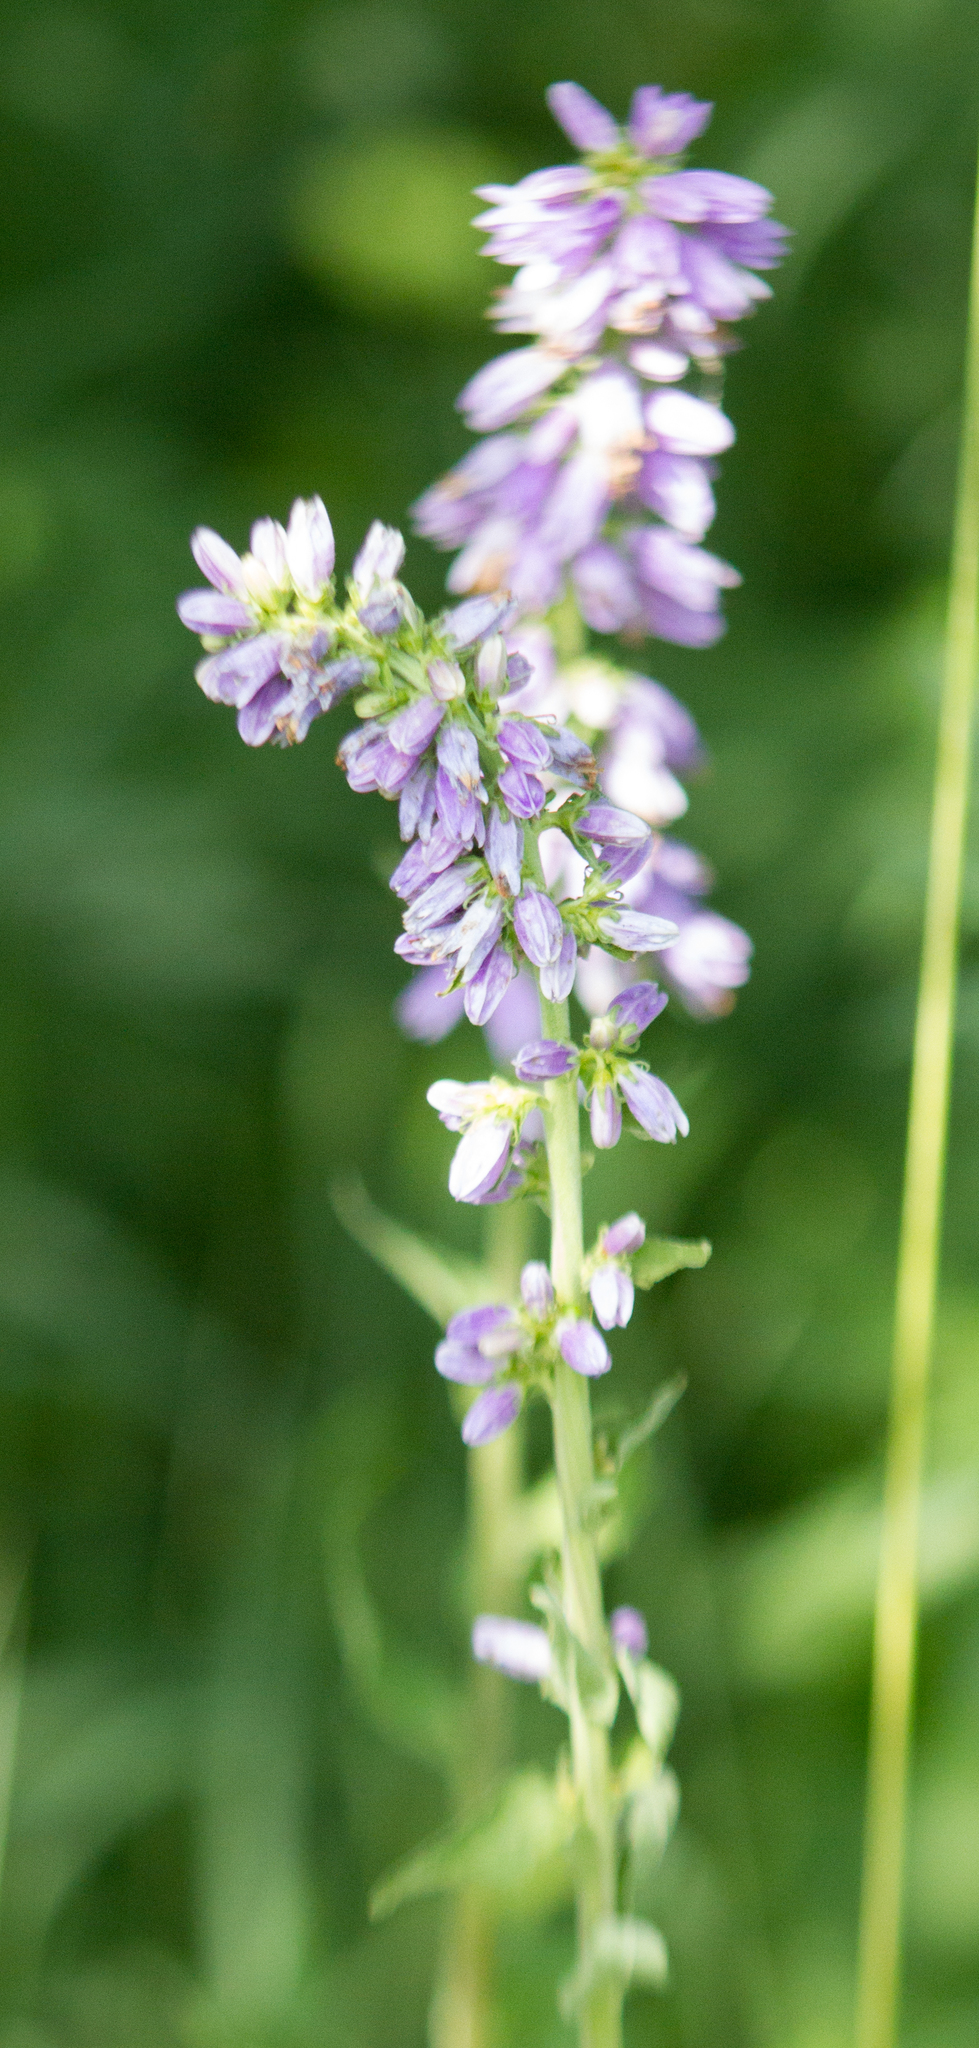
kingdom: Plantae
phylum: Tracheophyta
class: Magnoliopsida
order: Asterales
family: Campanulaceae
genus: Campanula
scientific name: Campanula bononiensis
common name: Pale bellflower
